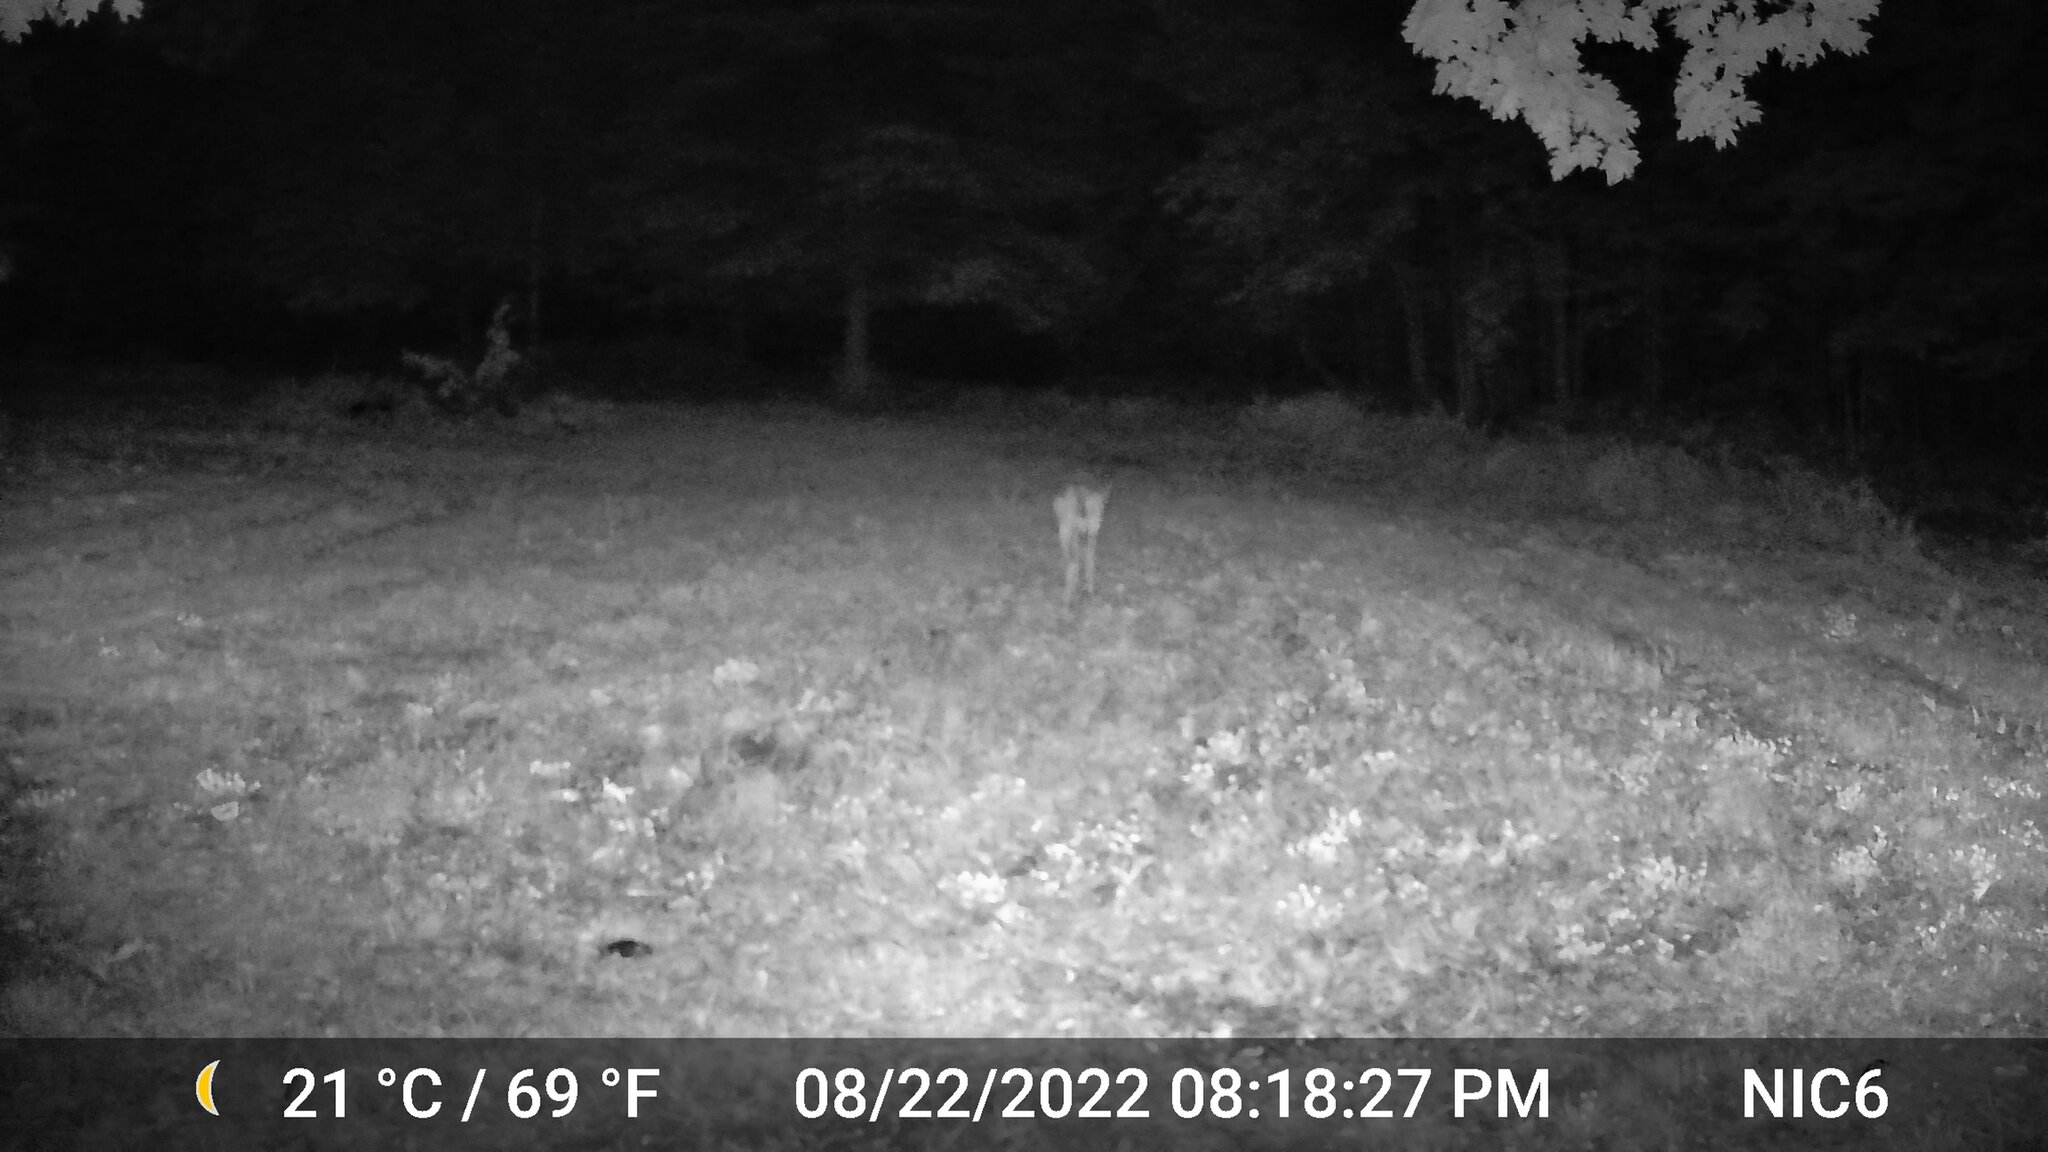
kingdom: Animalia
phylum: Chordata
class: Mammalia
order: Artiodactyla
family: Cervidae
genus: Odocoileus
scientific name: Odocoileus virginianus
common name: White-tailed deer
